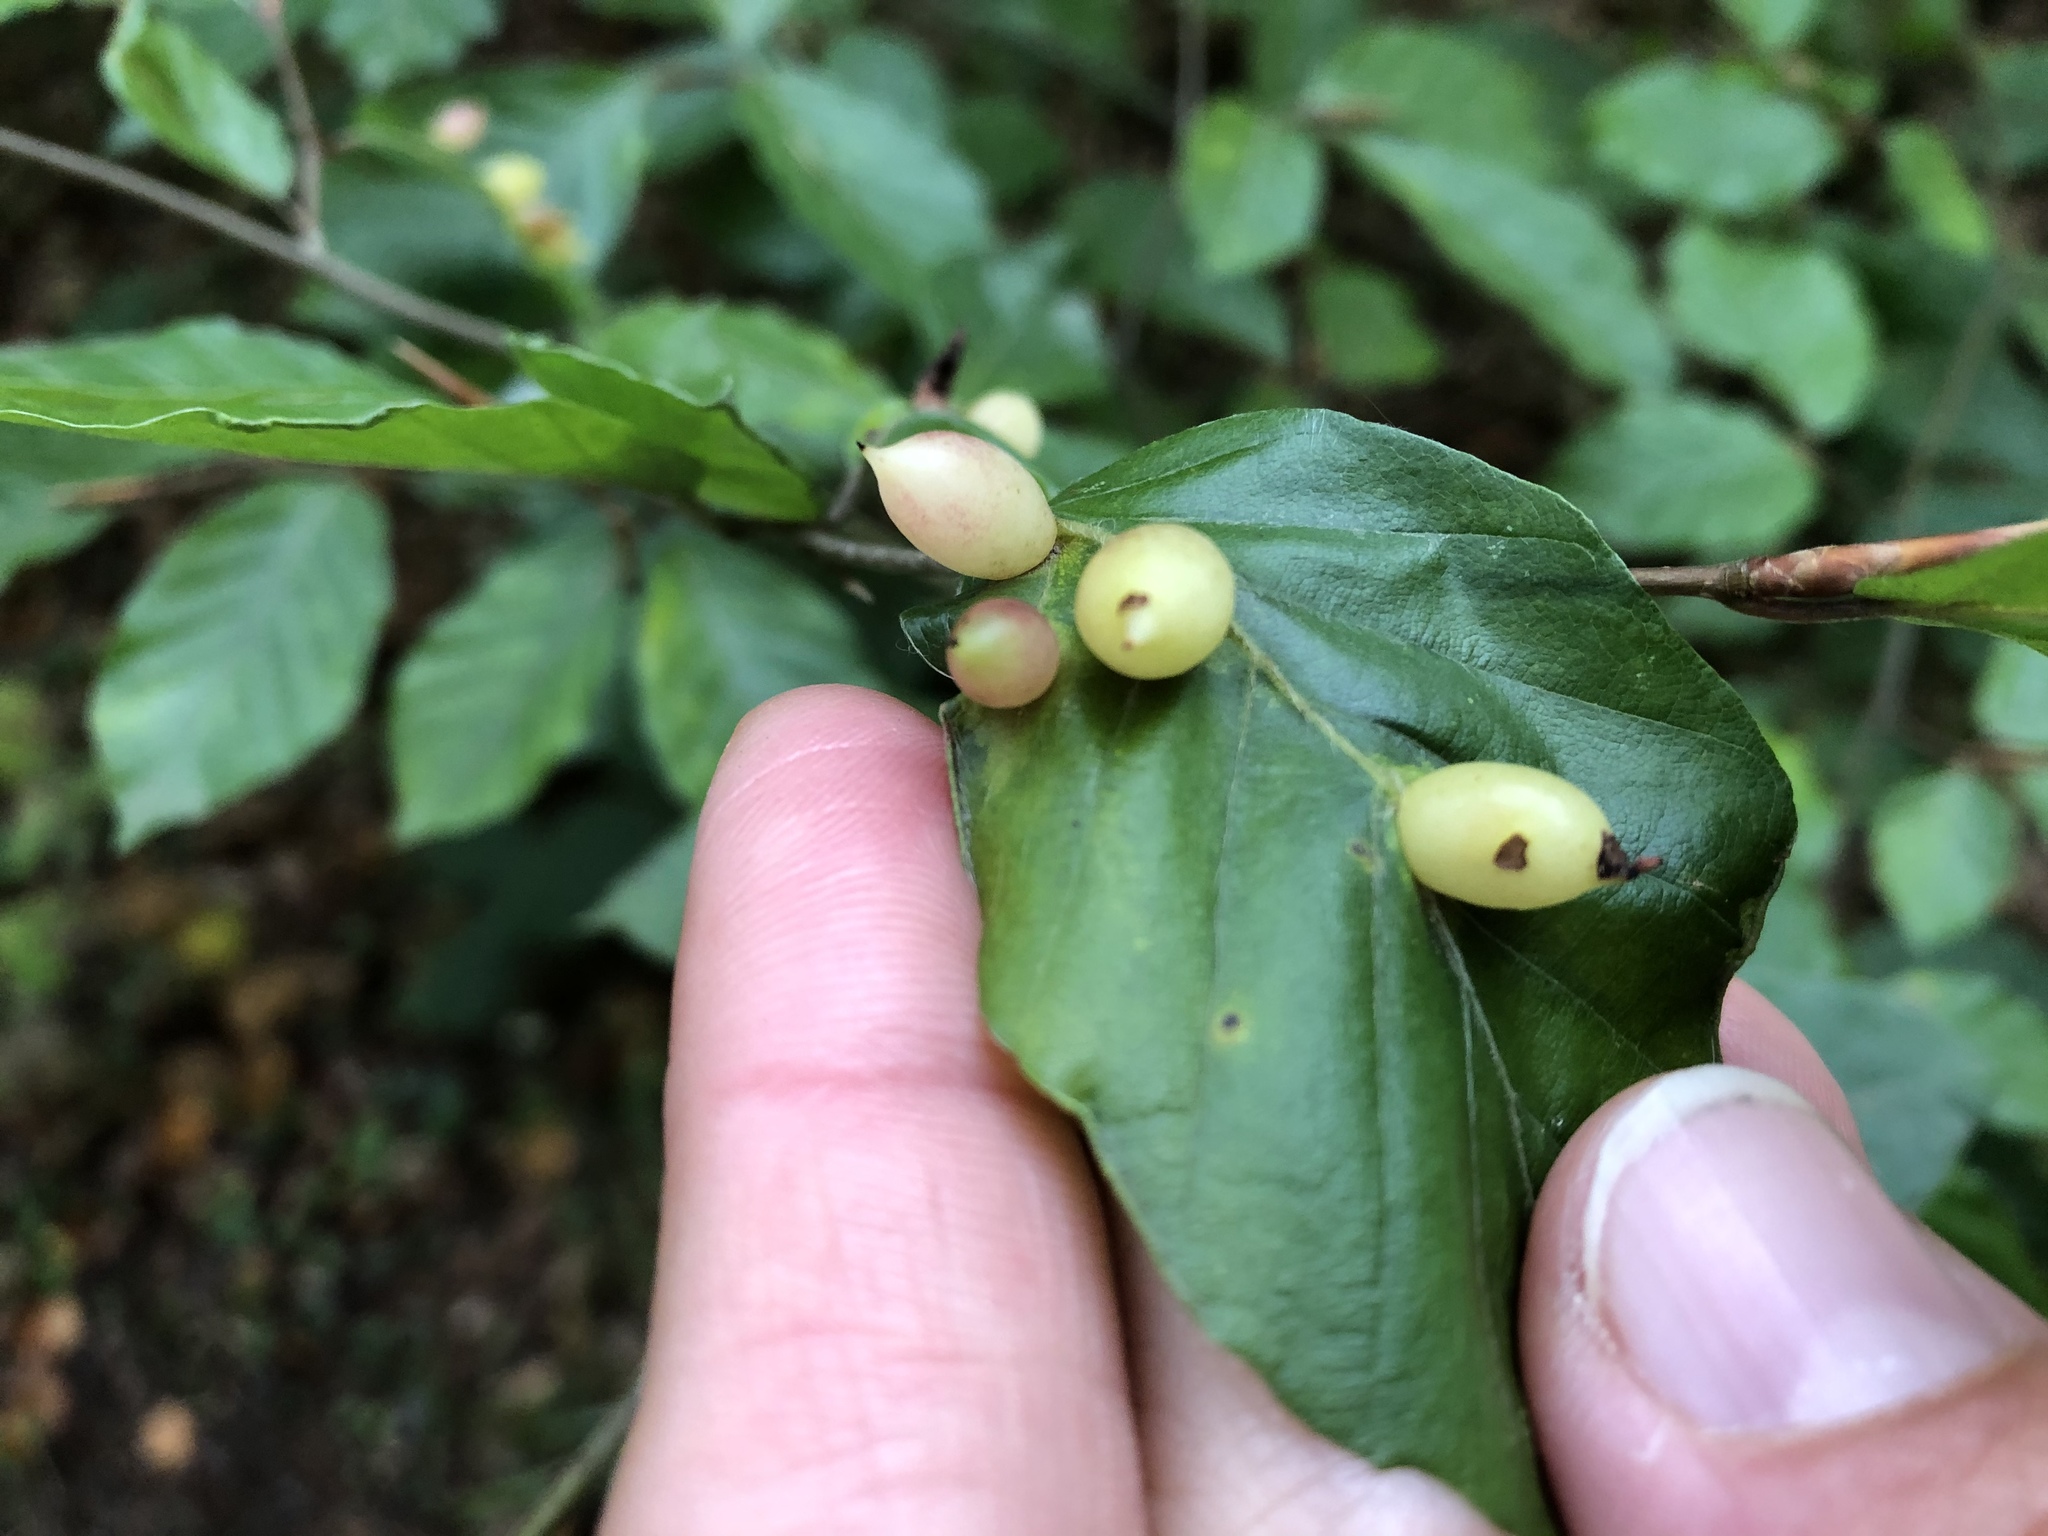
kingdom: Animalia
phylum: Arthropoda
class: Insecta
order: Diptera
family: Cecidomyiidae
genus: Mikiola
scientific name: Mikiola fagi
